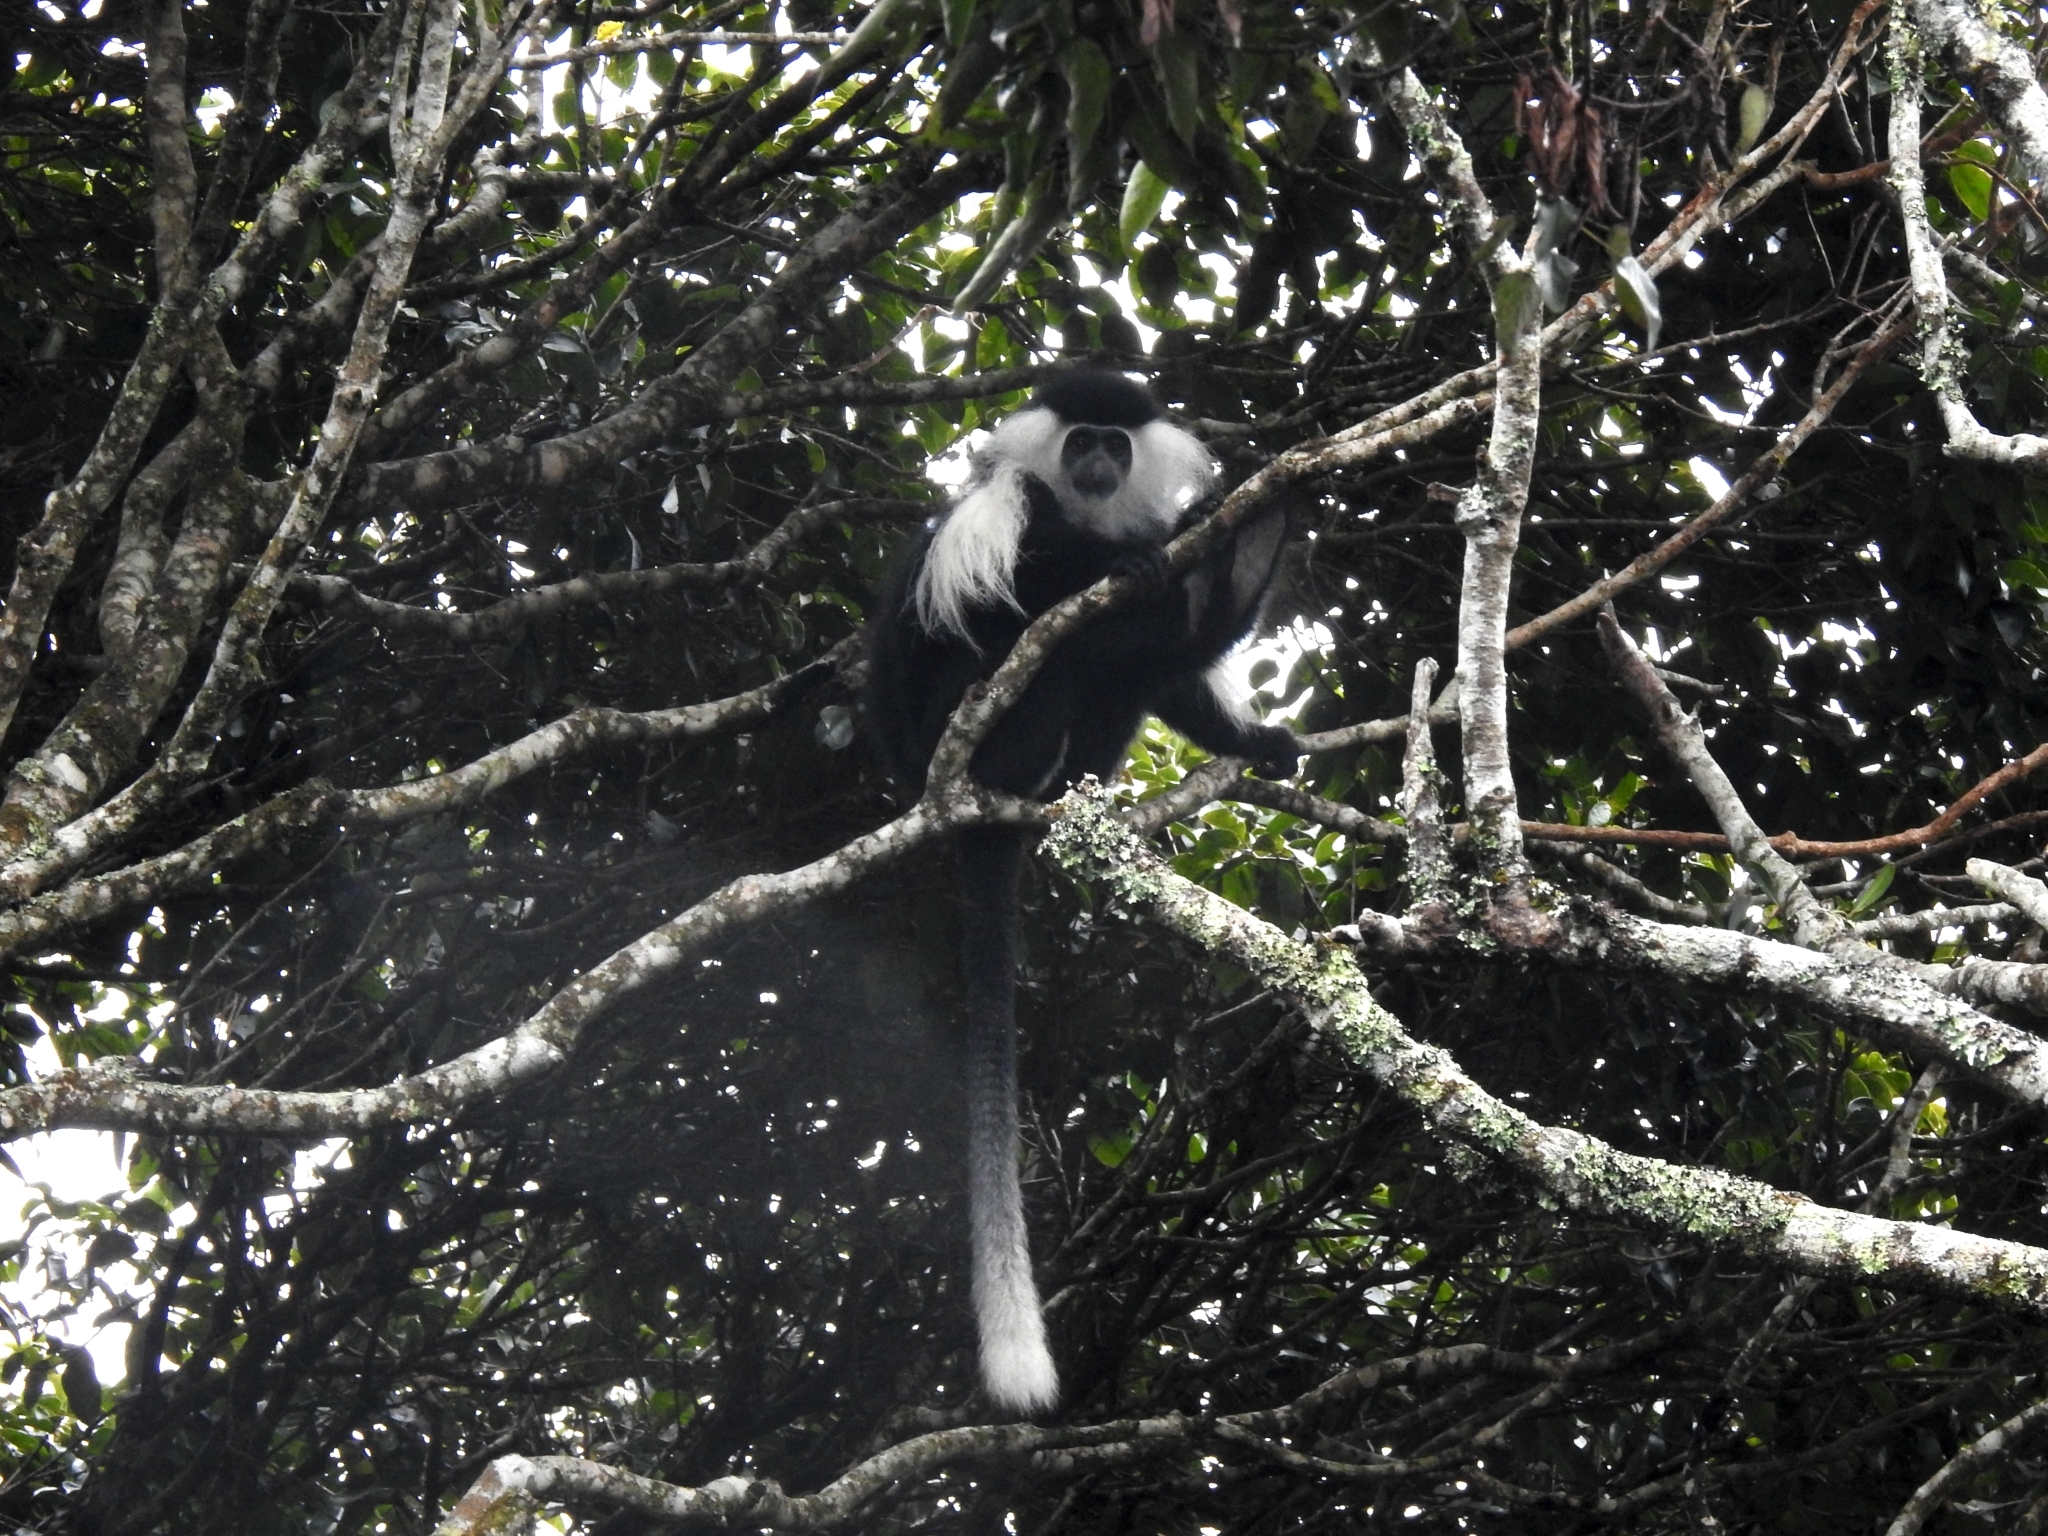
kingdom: Animalia
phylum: Chordata
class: Mammalia
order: Primates
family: Cercopithecidae
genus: Colobus
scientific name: Colobus angolensis
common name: Angola colobus
